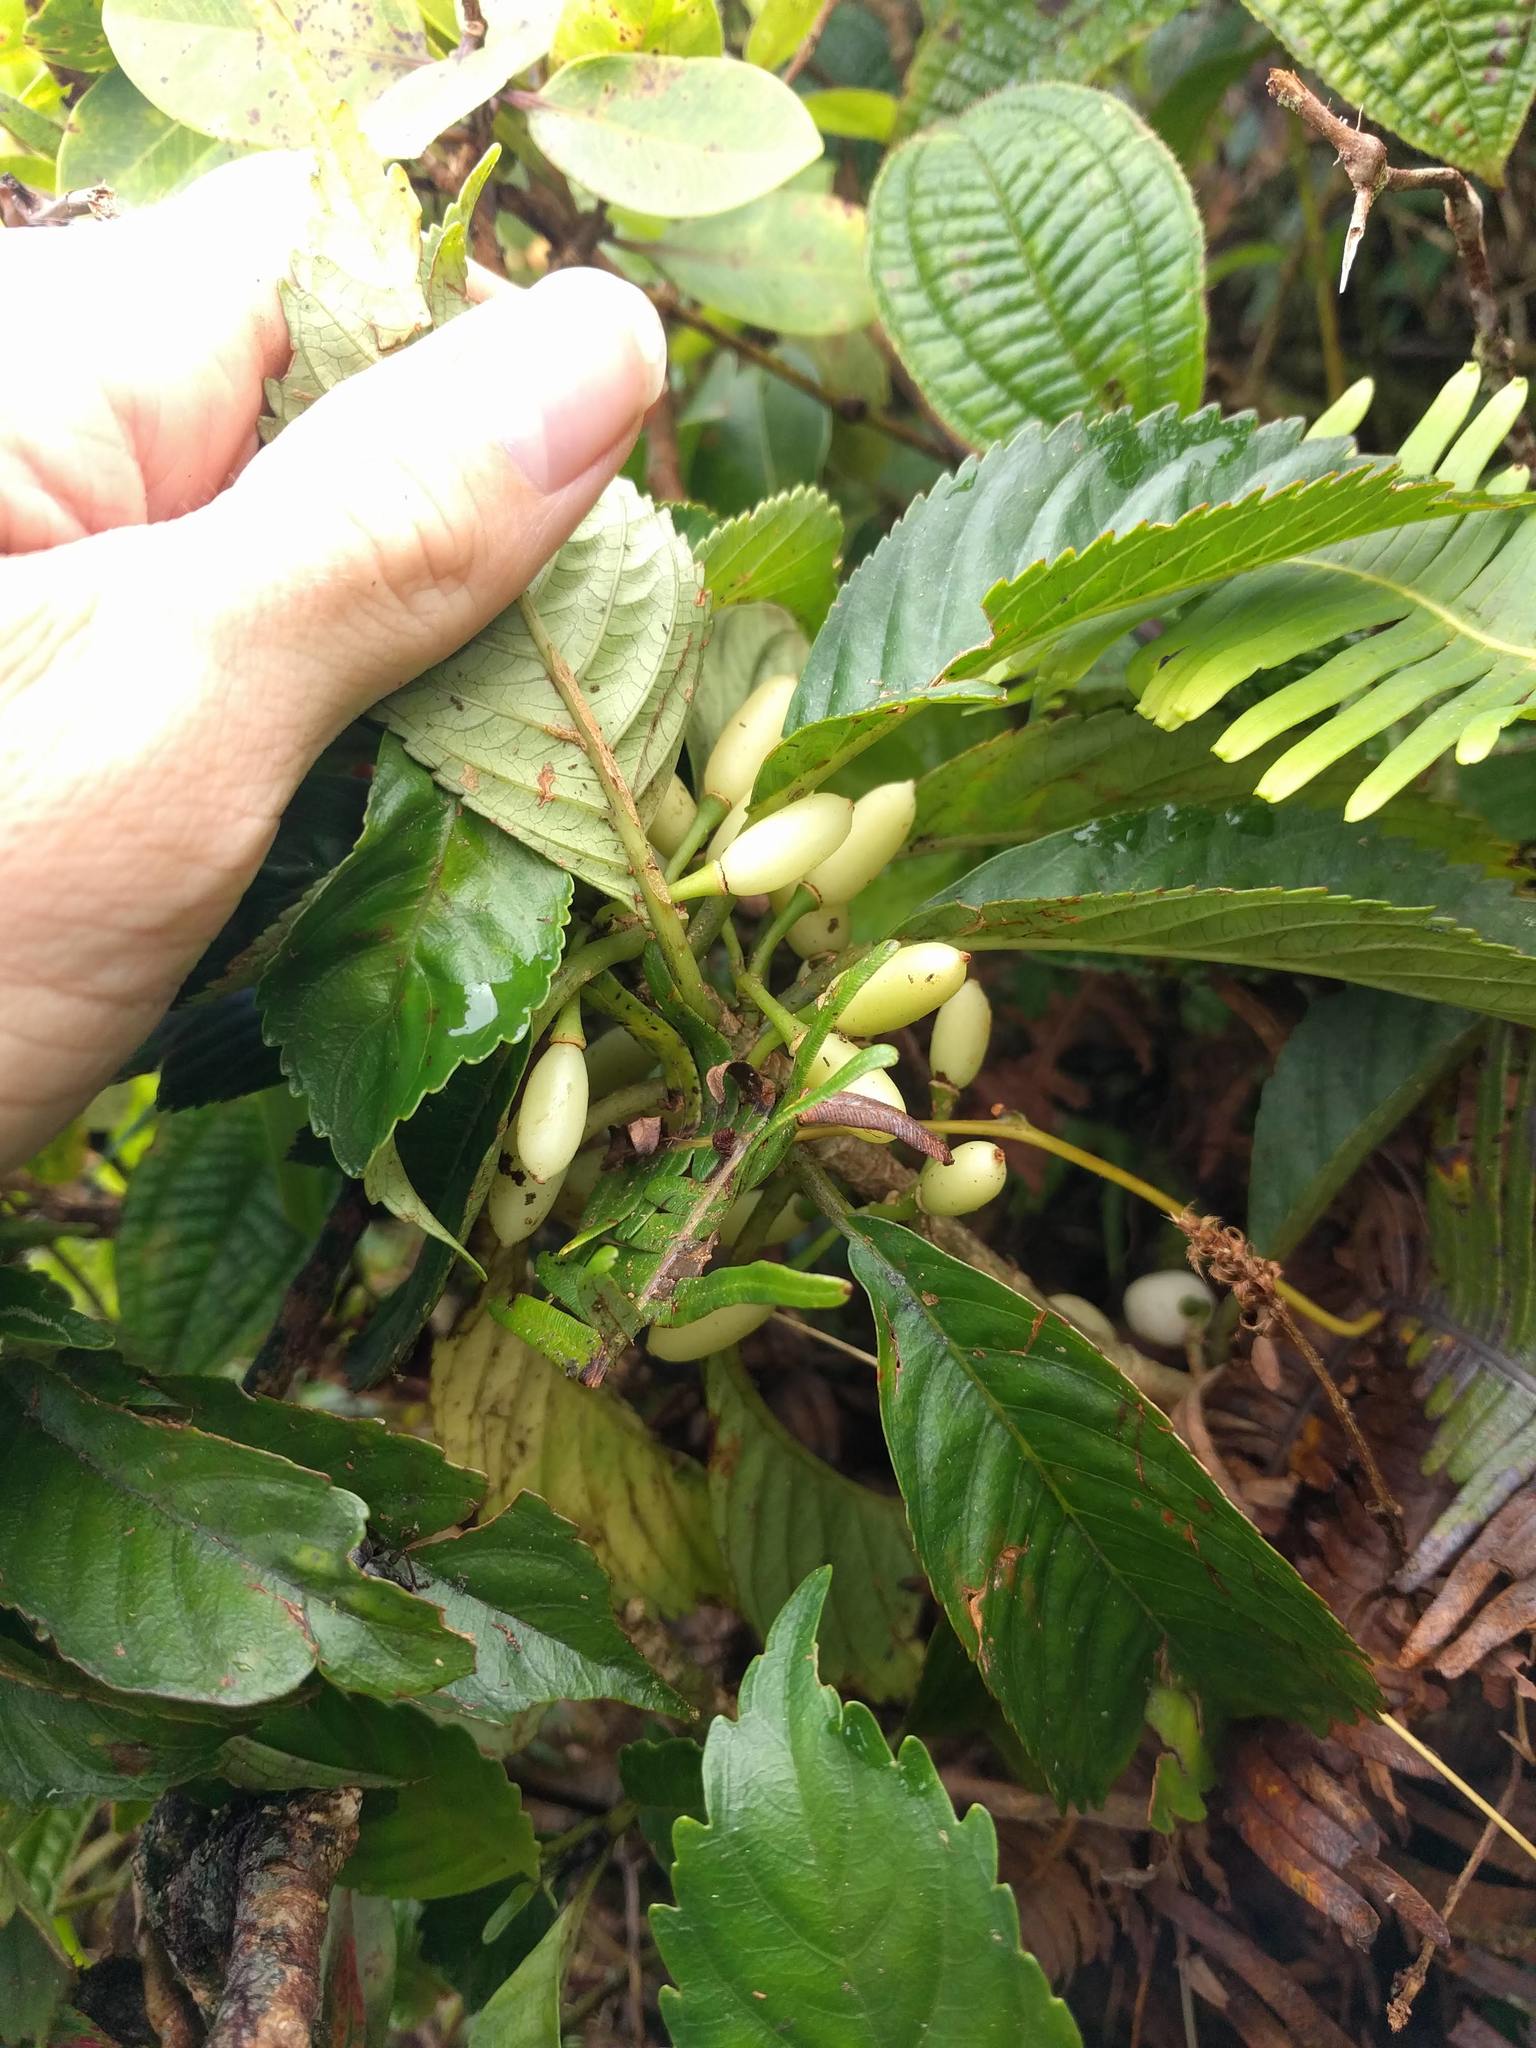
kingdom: Plantae
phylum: Tracheophyta
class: Magnoliopsida
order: Lamiales
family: Gesneriaceae
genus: Cyrtandra
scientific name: Cyrtandra paludosa
